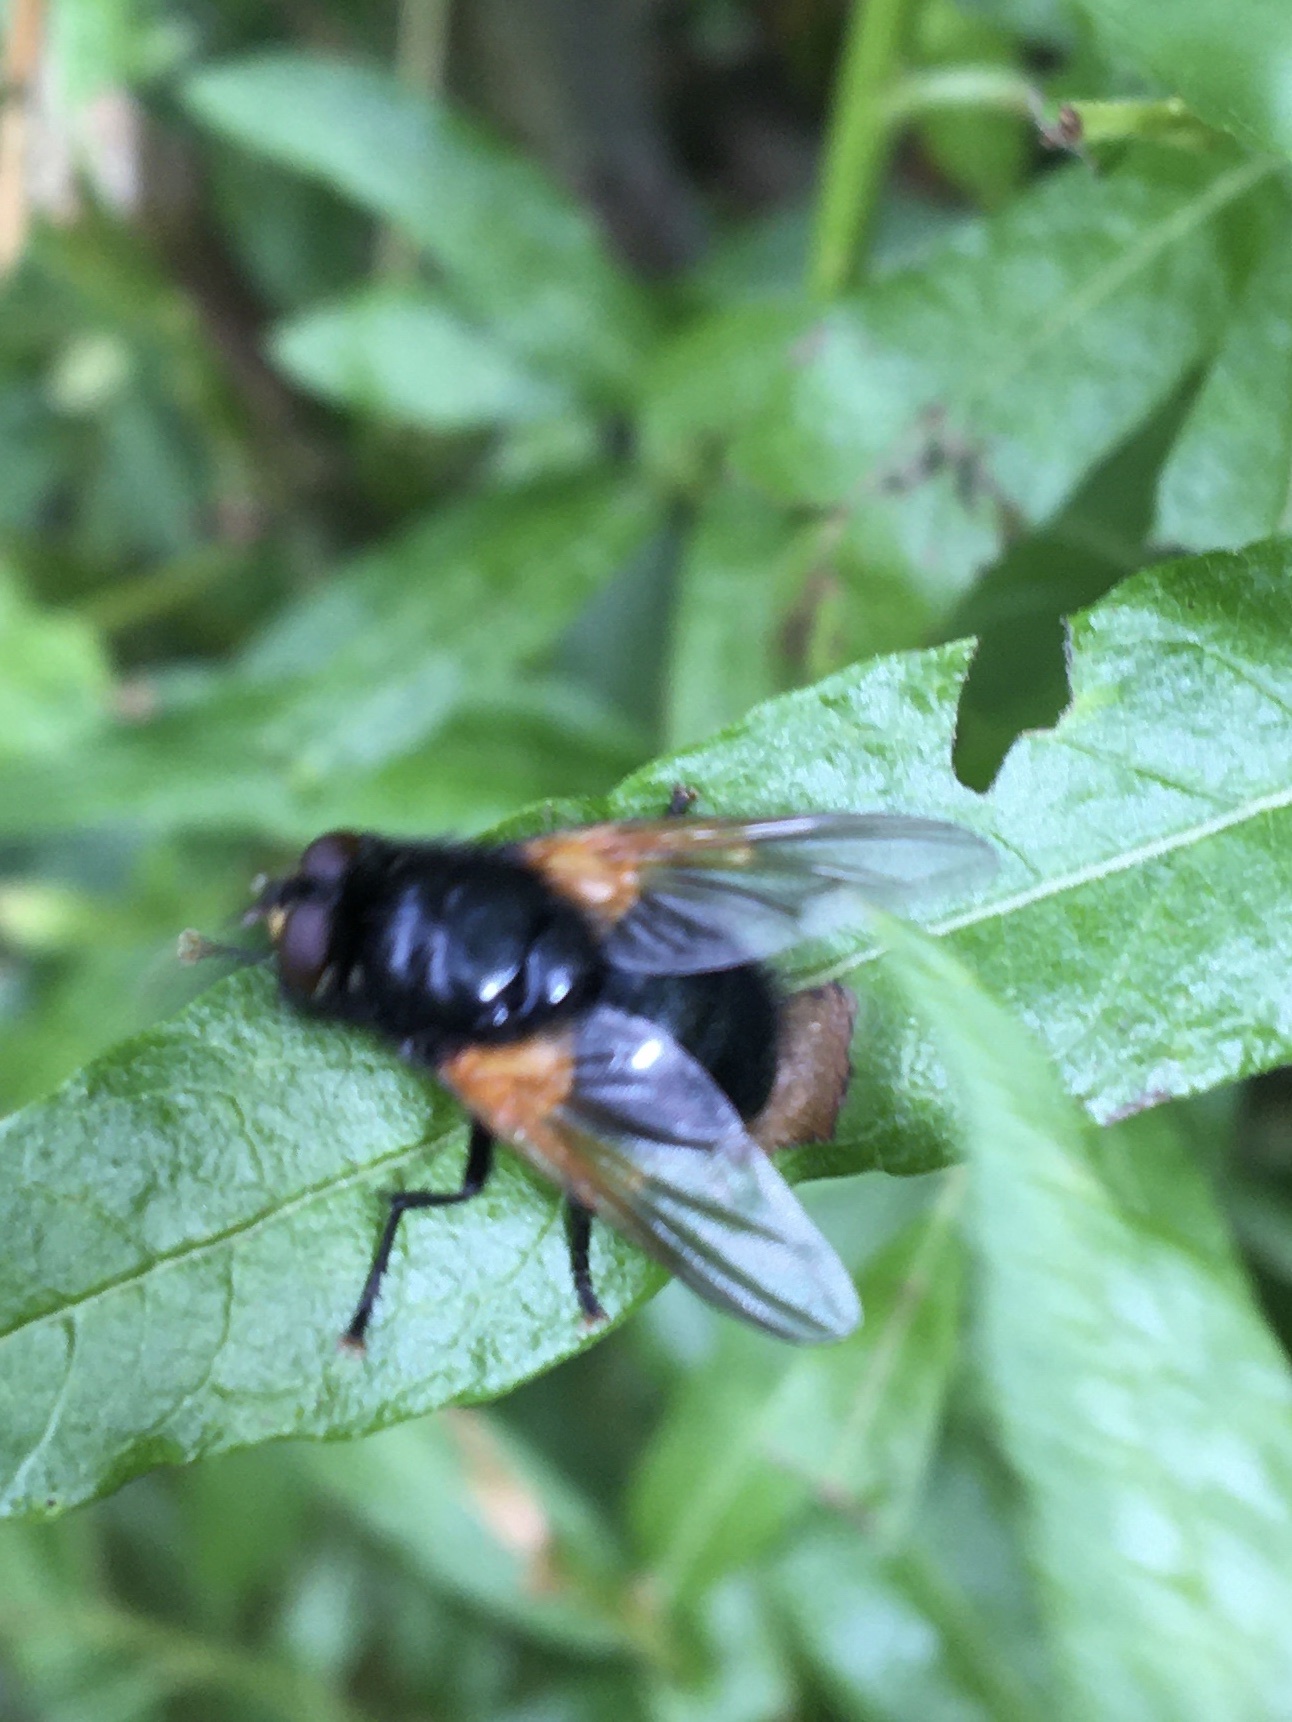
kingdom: Animalia
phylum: Arthropoda
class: Insecta
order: Diptera
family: Muscidae
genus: Mesembrina
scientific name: Mesembrina meridiana
